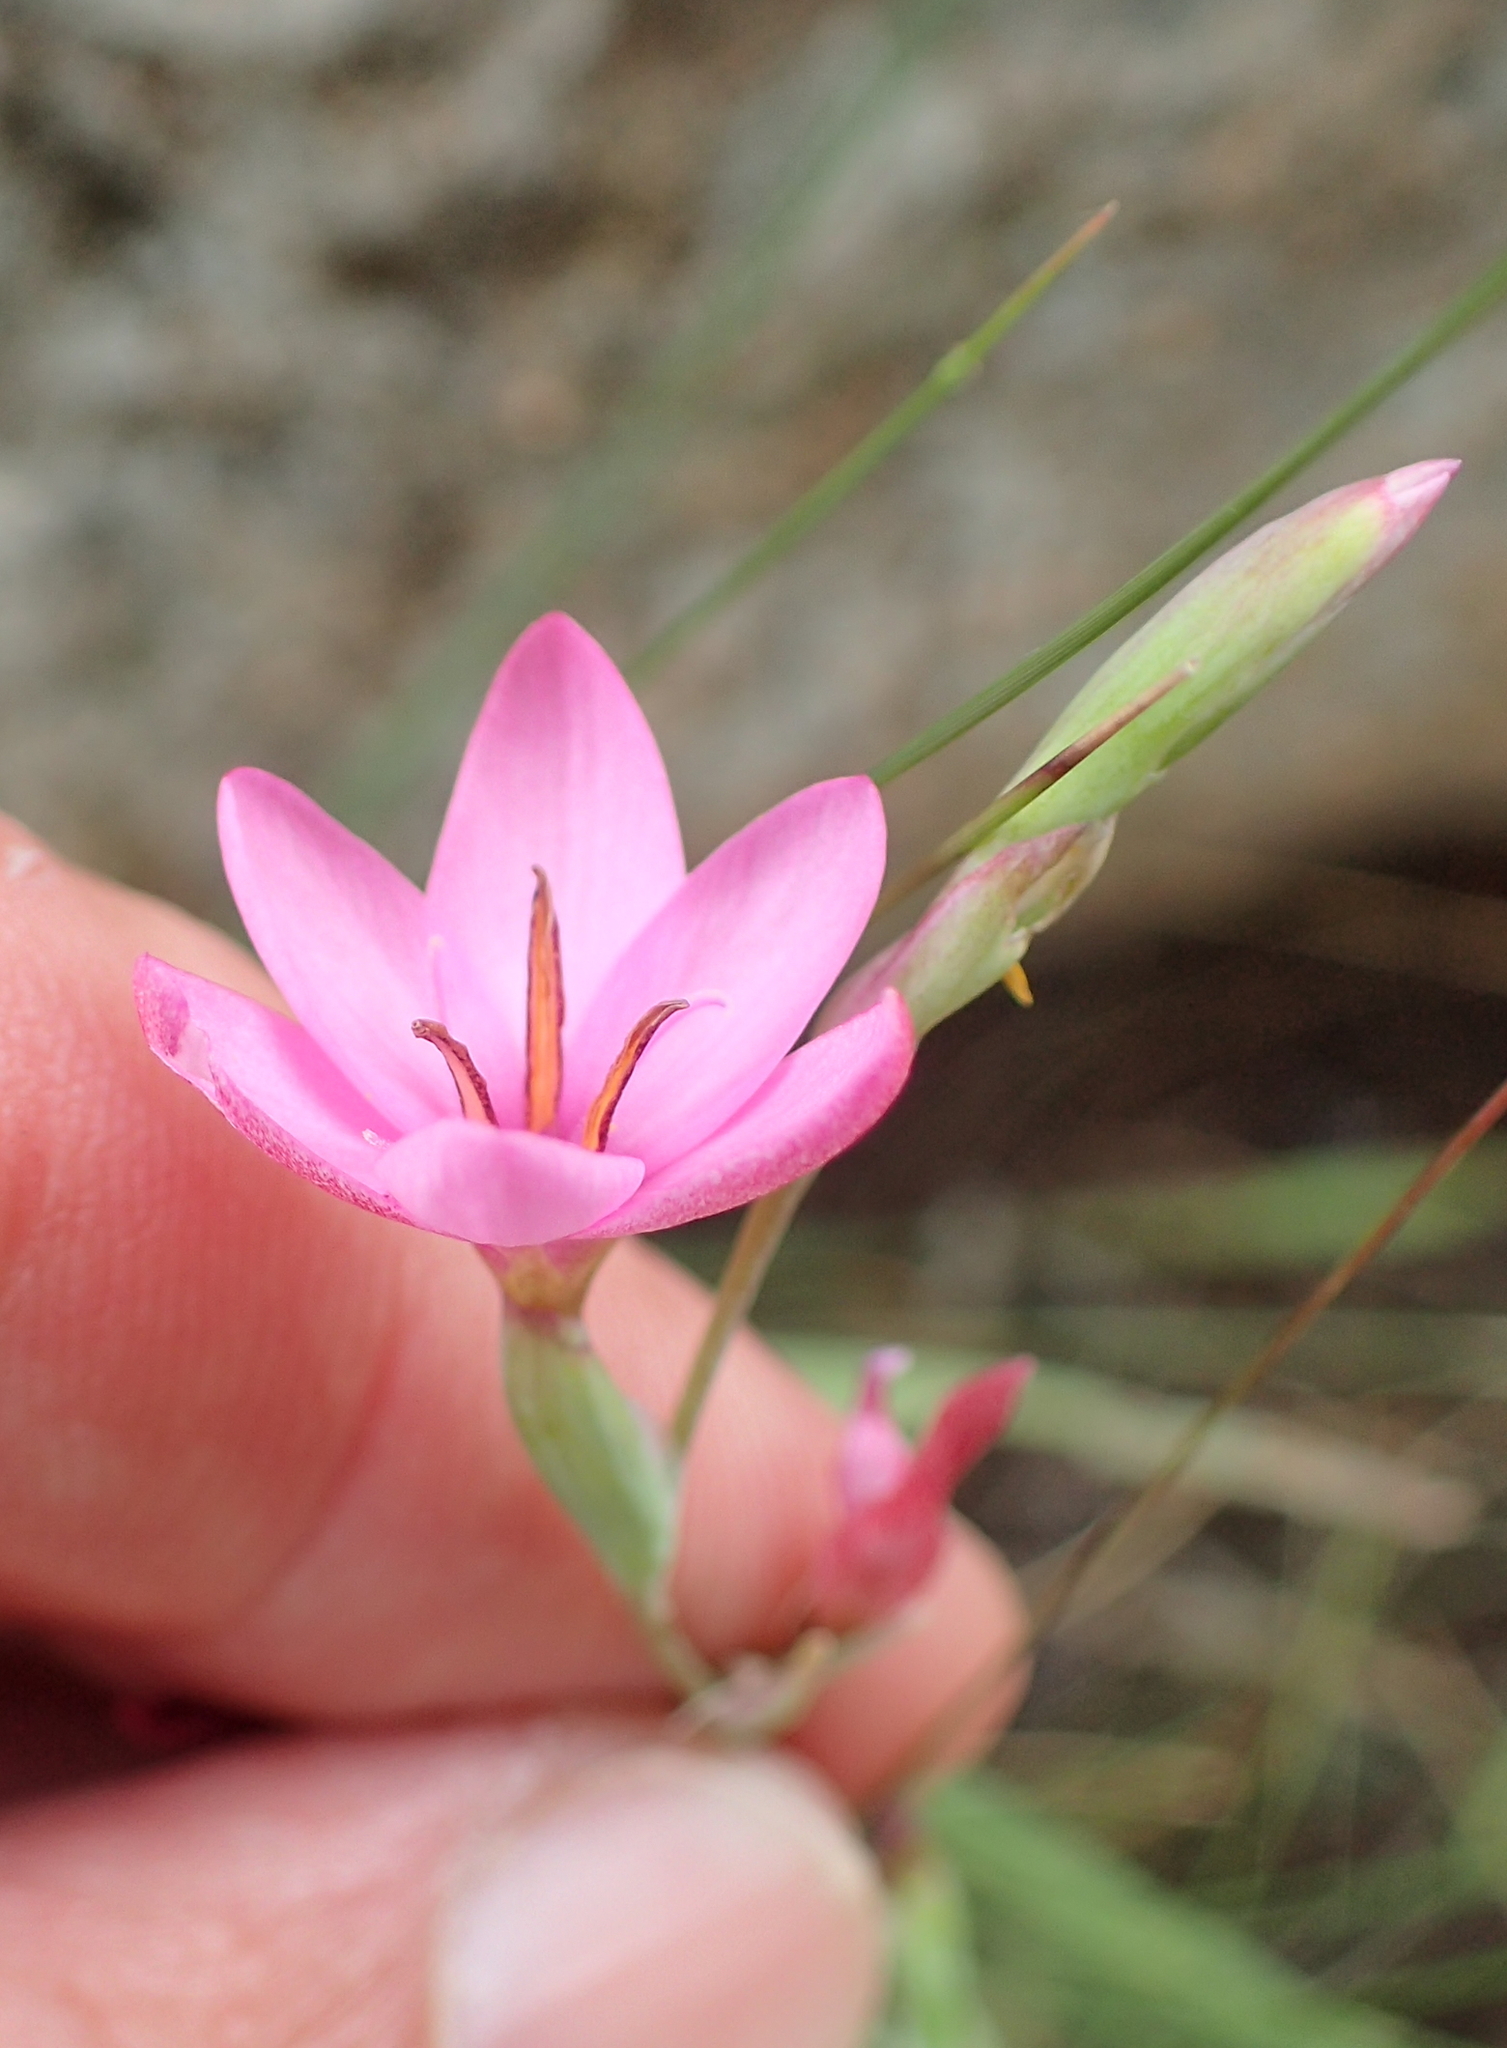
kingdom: Plantae
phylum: Tracheophyta
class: Liliopsida
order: Asparagales
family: Iridaceae
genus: Hesperantha
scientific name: Hesperantha baurii
